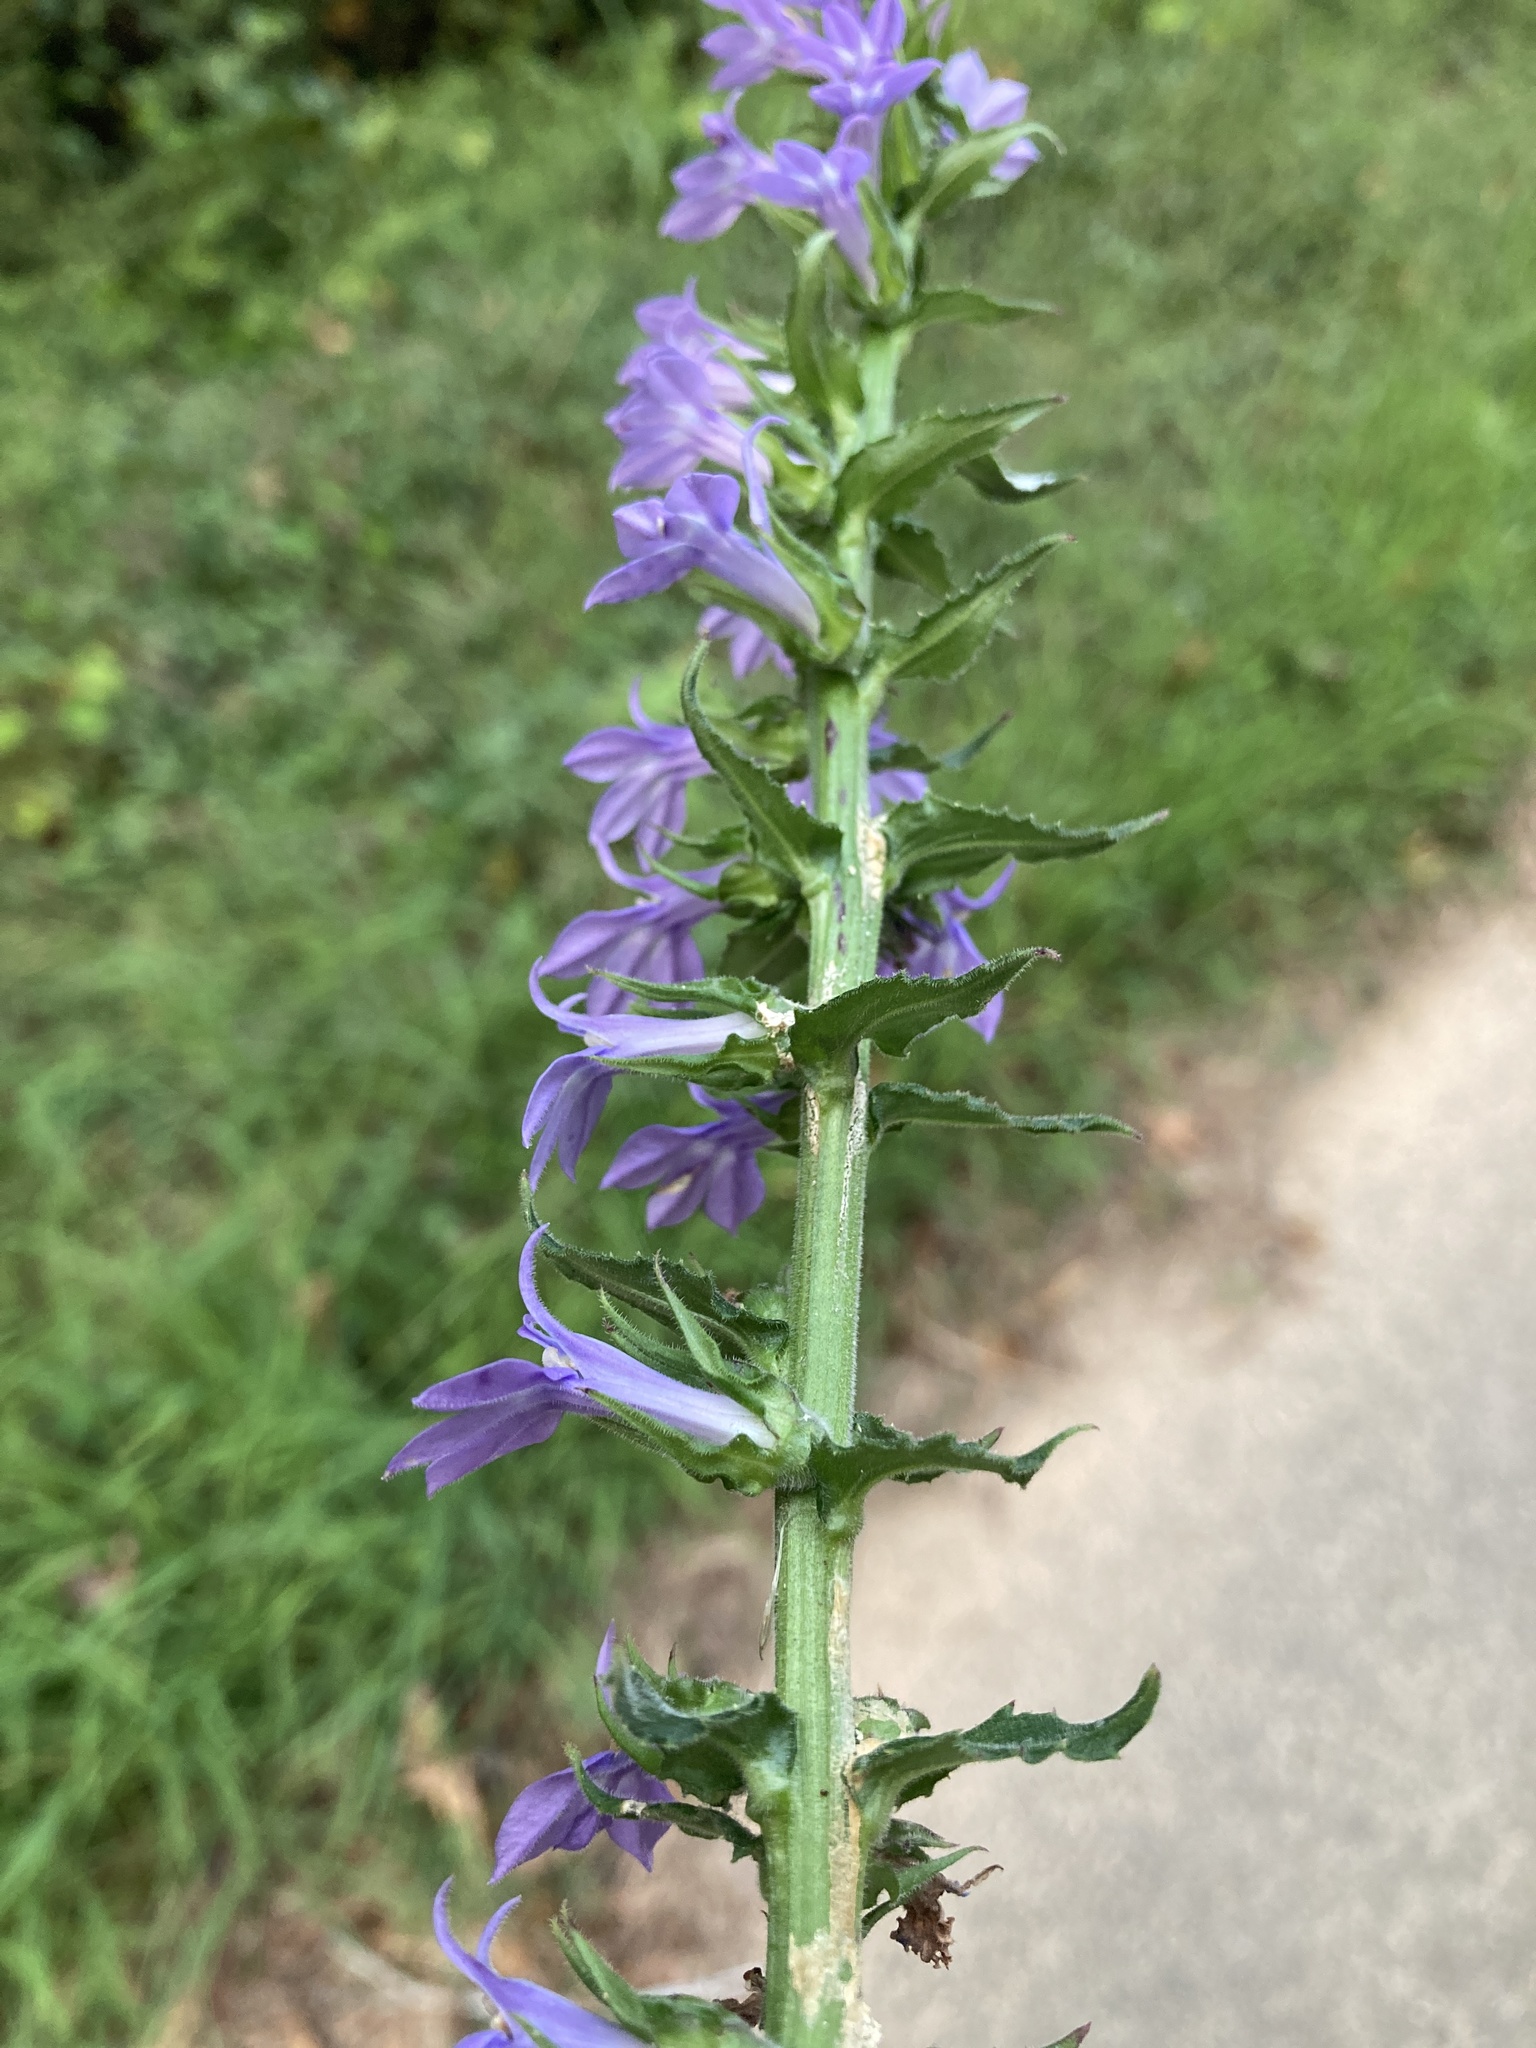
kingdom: Plantae
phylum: Tracheophyta
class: Magnoliopsida
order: Asterales
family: Campanulaceae
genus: Lobelia
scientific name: Lobelia puberula
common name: Purple dewdrop
